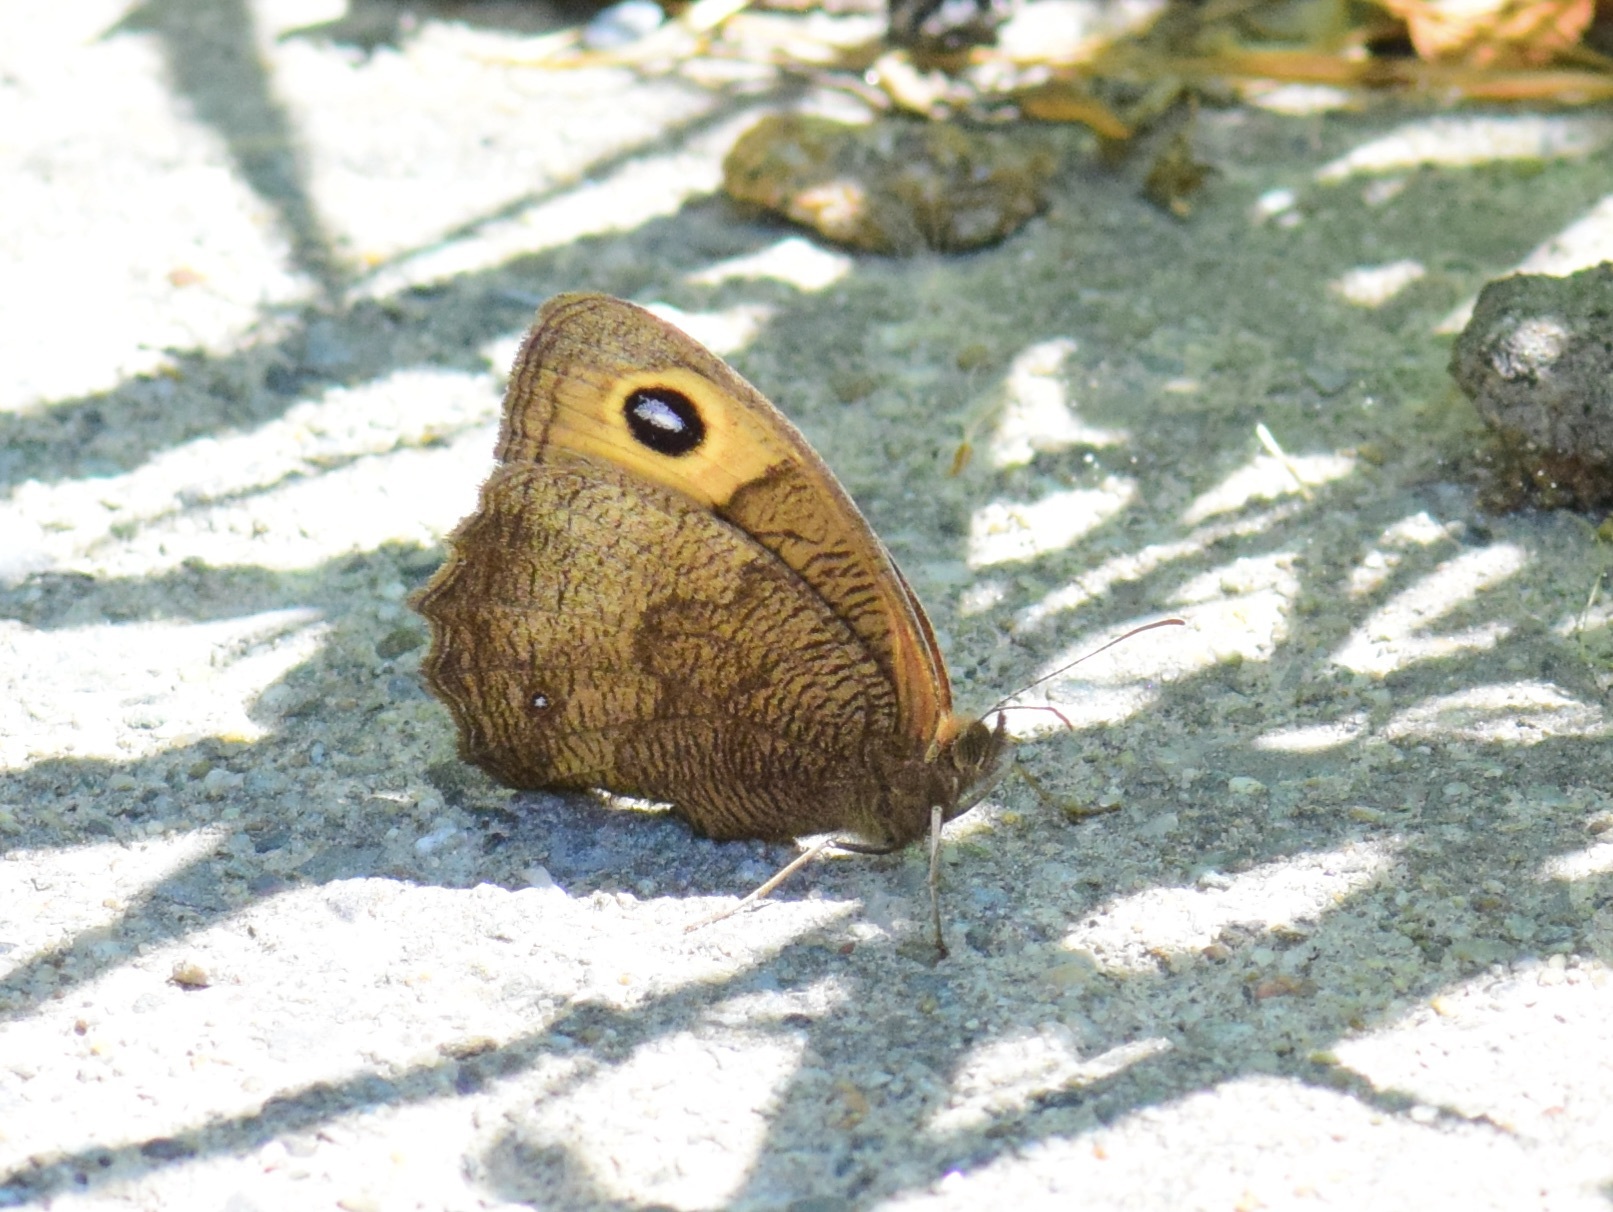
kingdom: Animalia
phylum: Arthropoda
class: Insecta
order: Lepidoptera
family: Nymphalidae
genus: Cercyonis
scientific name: Cercyonis pegala
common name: Common wood-nymph
